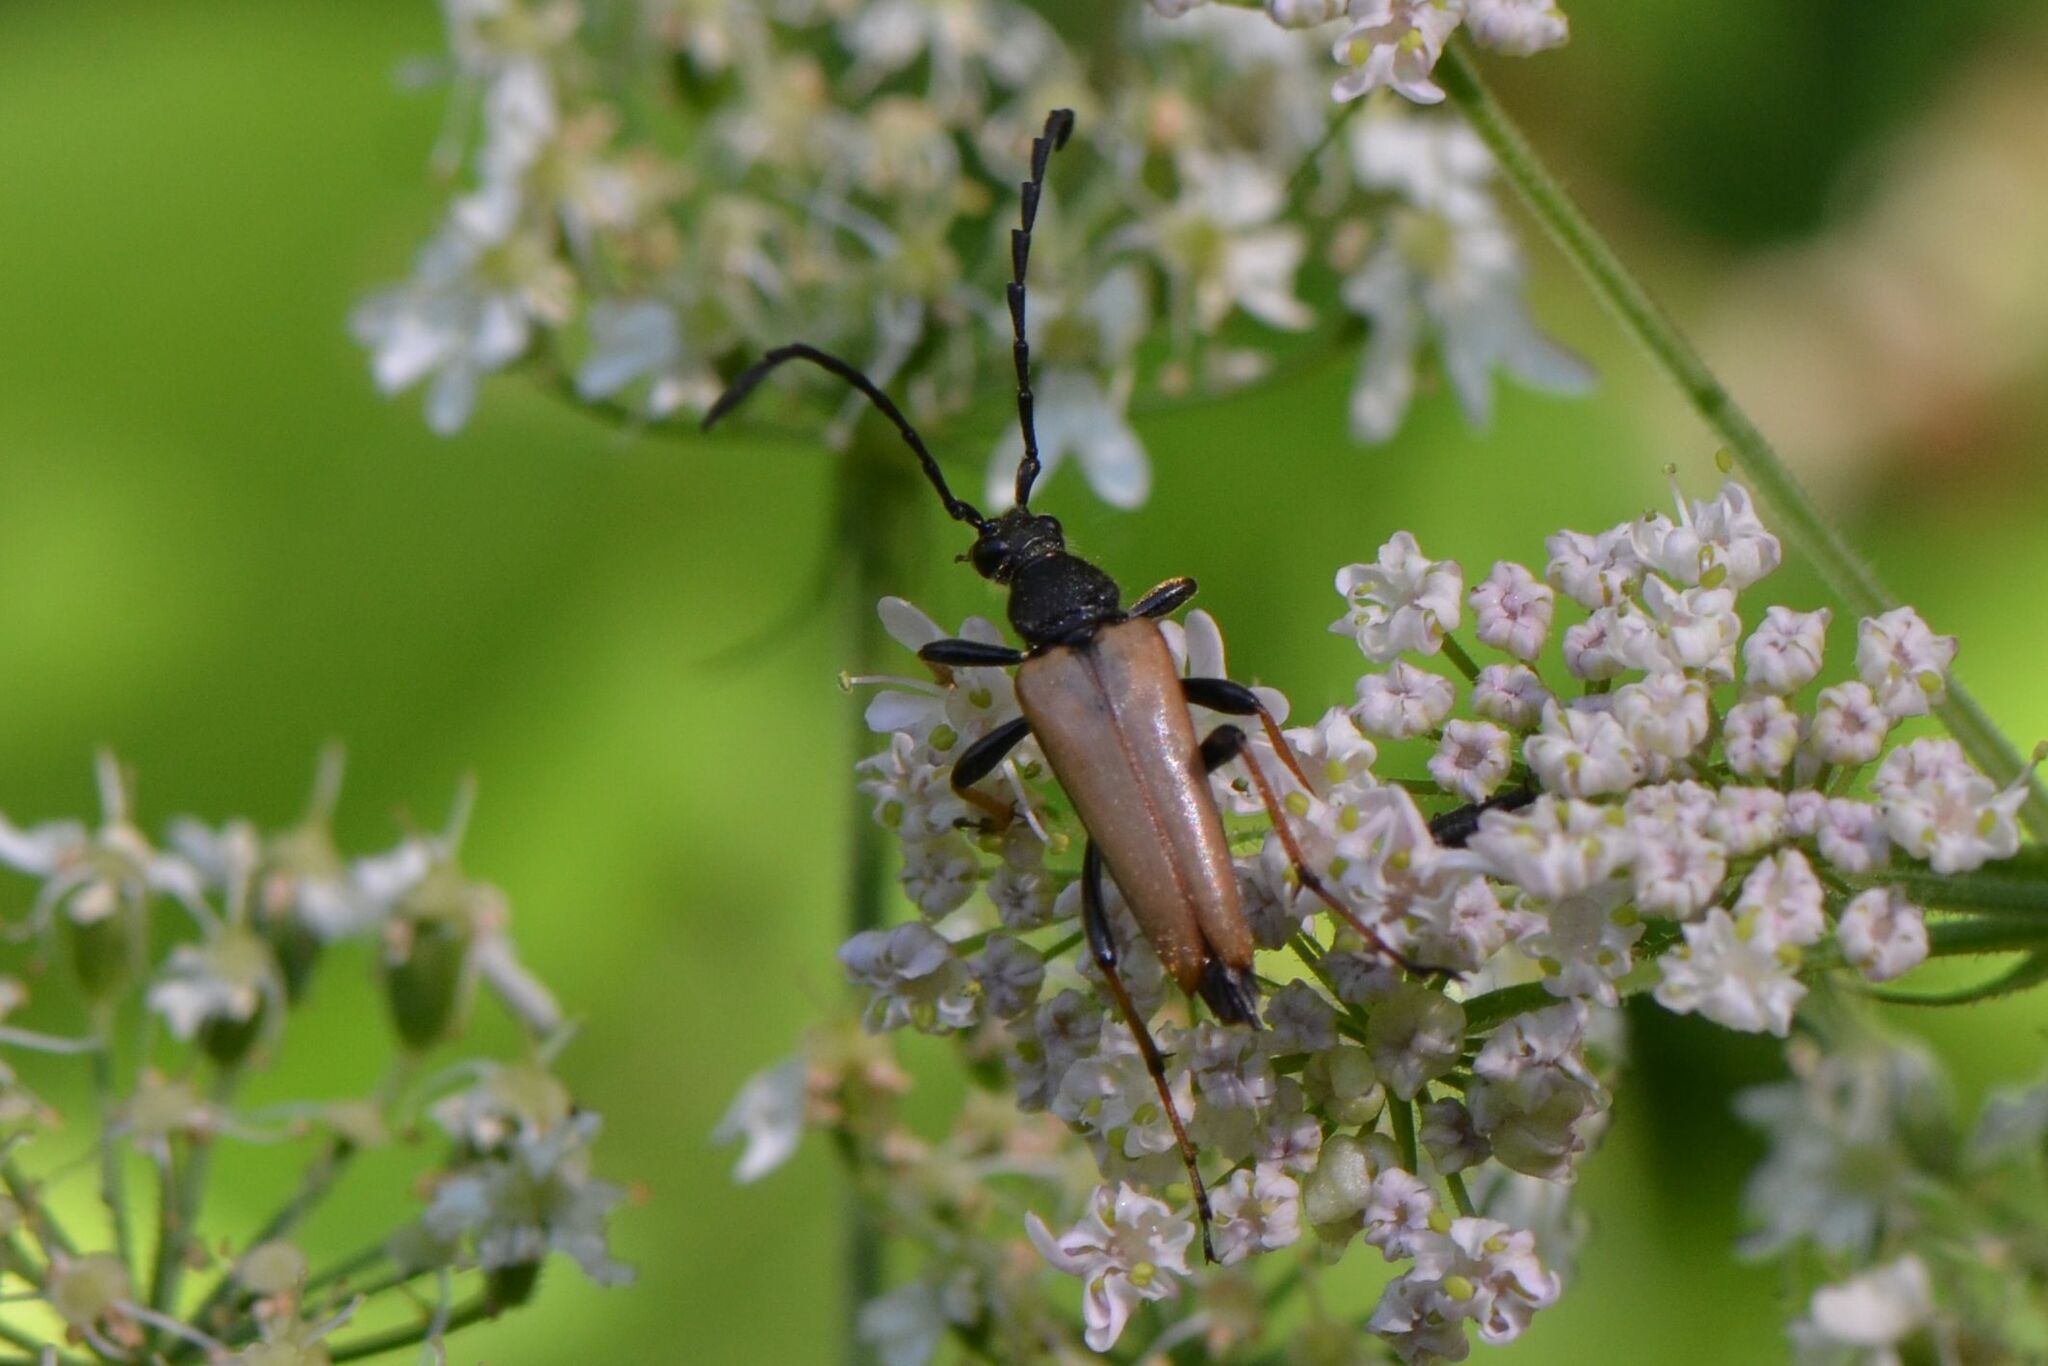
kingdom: Animalia
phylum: Arthropoda
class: Insecta
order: Coleoptera
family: Cerambycidae
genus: Stictoleptura
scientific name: Stictoleptura rubra
